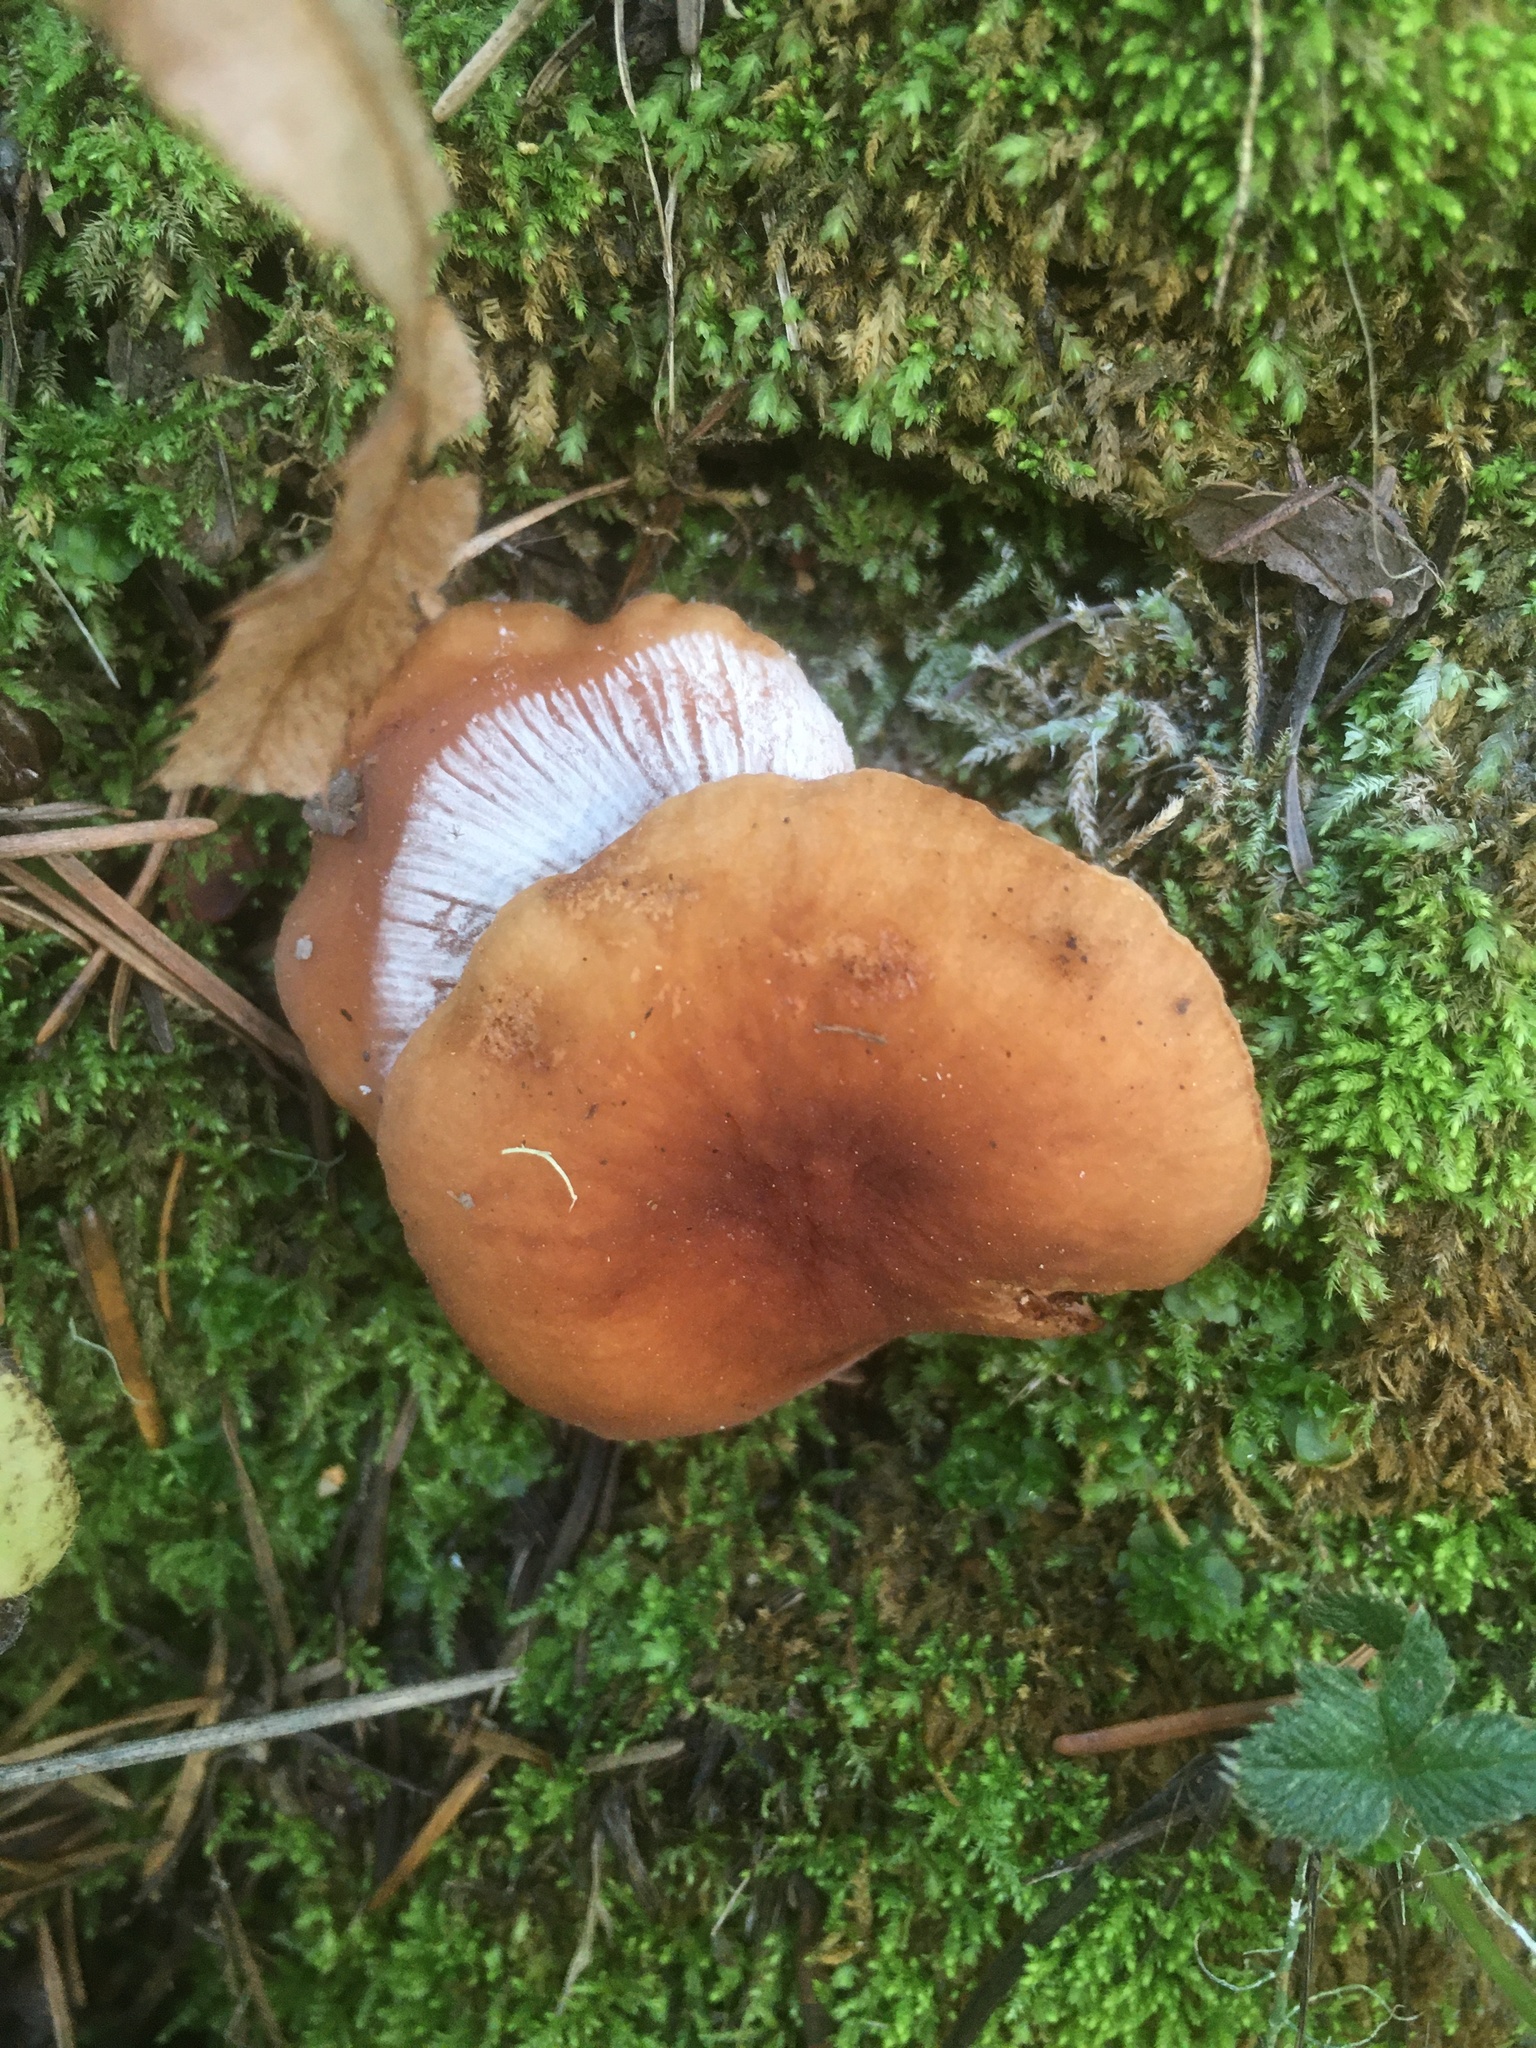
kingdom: Fungi
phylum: Basidiomycota
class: Agaricomycetes
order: Russulales
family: Russulaceae
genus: Lactarius
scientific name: Lactarius rubidus
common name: Candy cap
